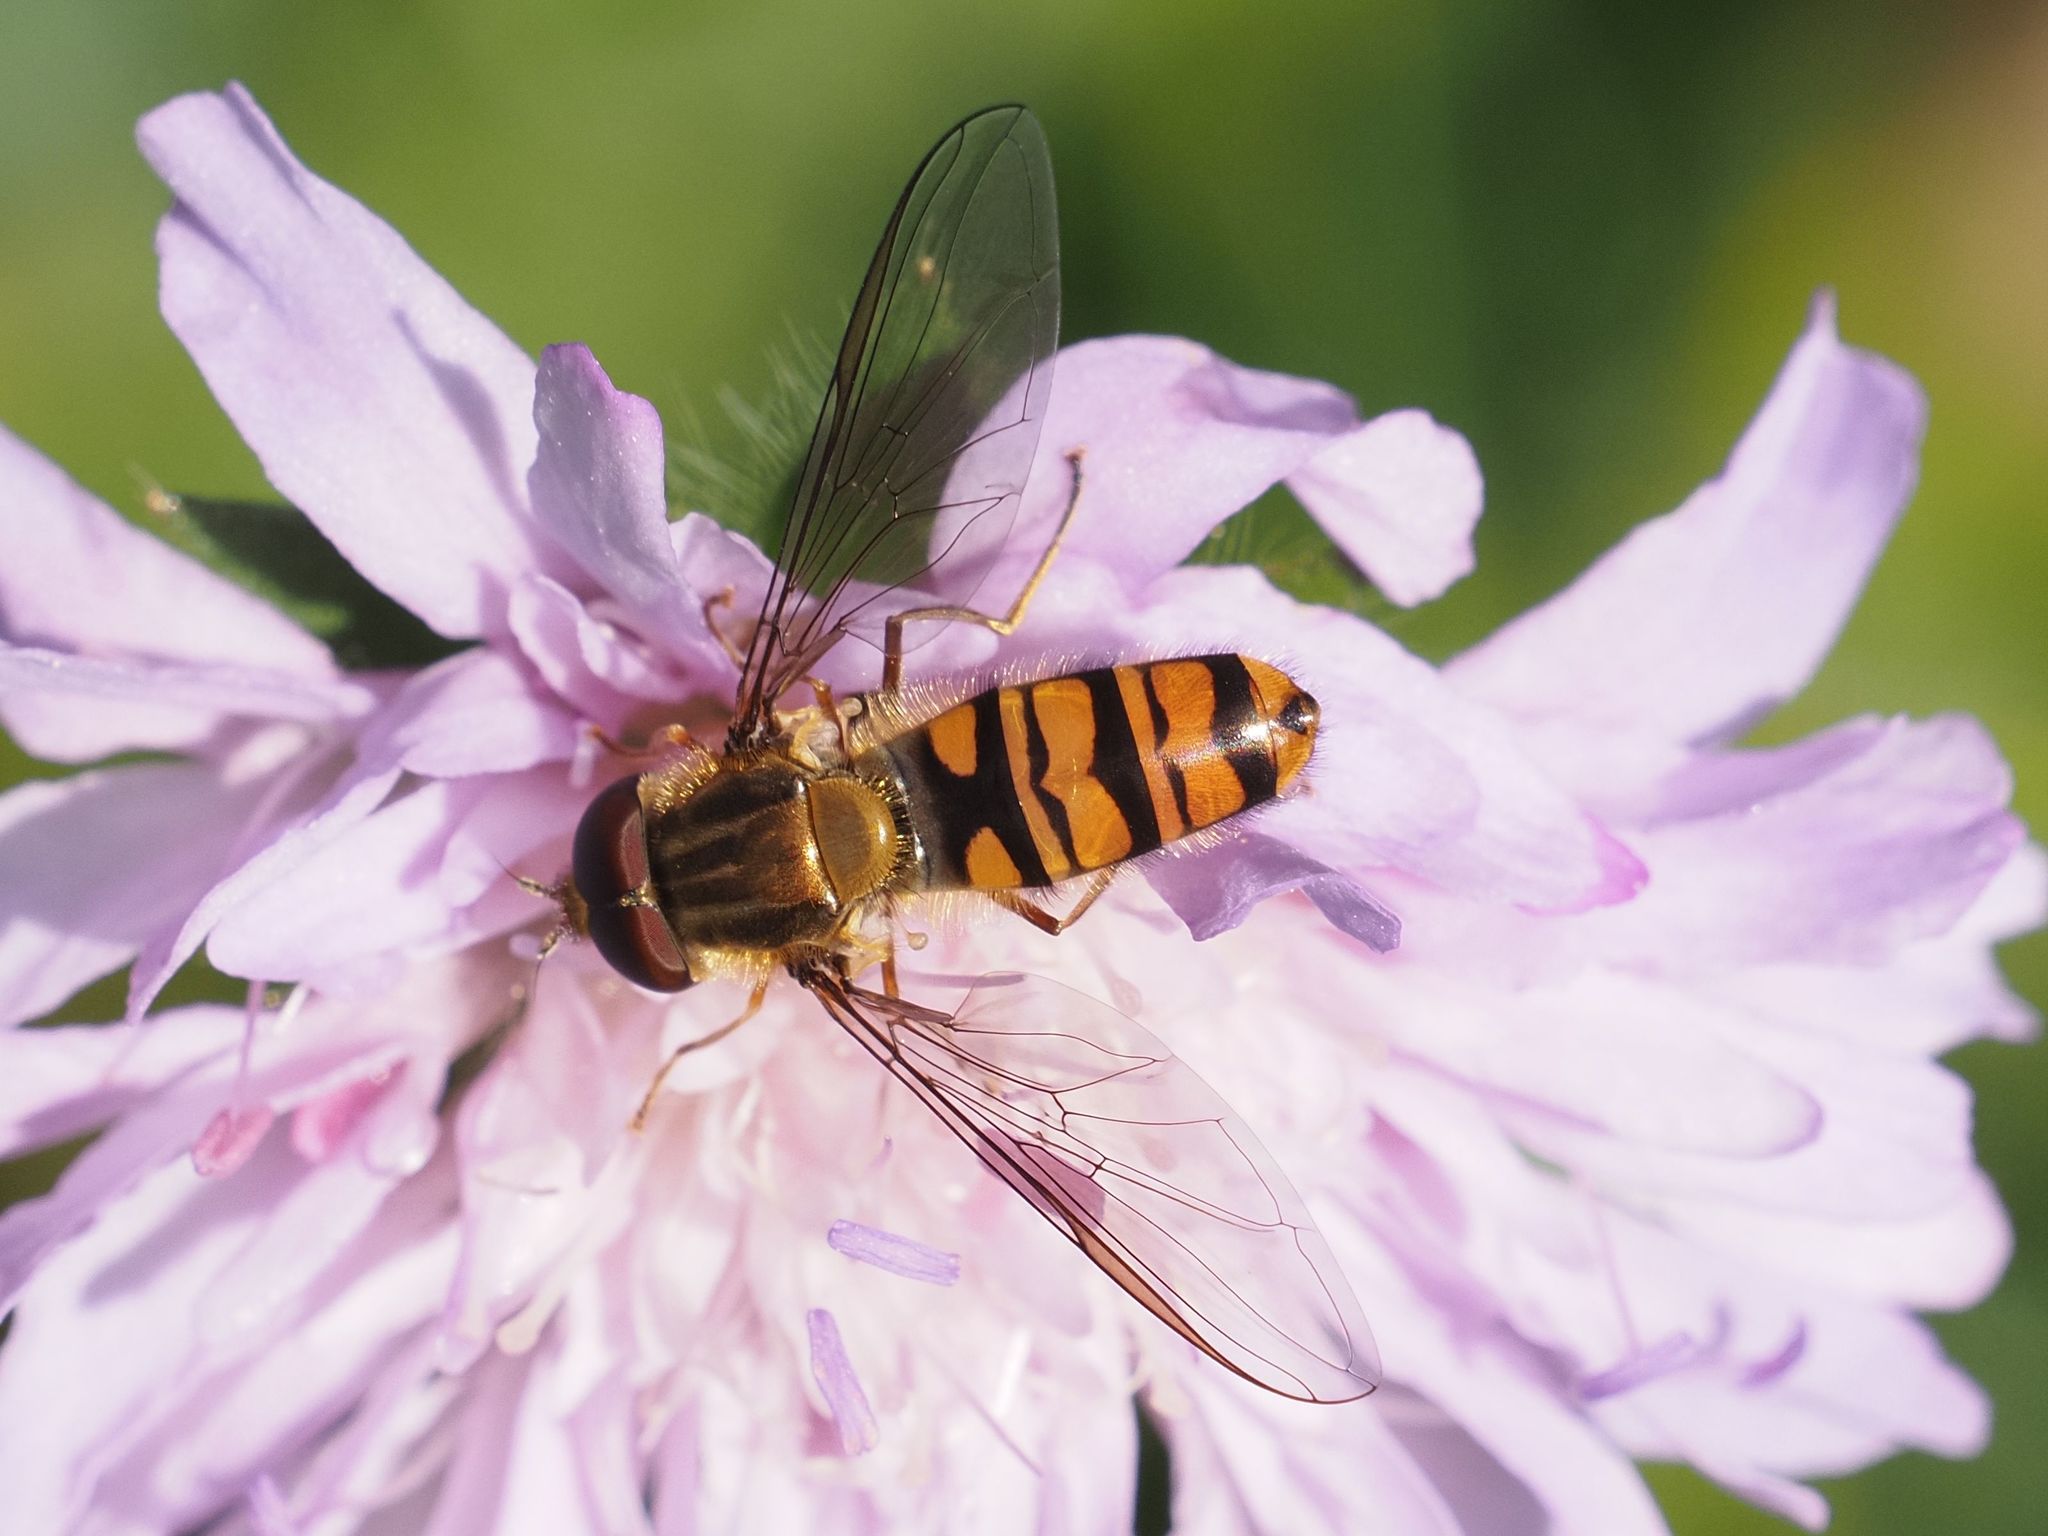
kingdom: Animalia
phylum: Arthropoda
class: Insecta
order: Diptera
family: Syrphidae
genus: Episyrphus
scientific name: Episyrphus balteatus
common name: Marmalade hoverfly
